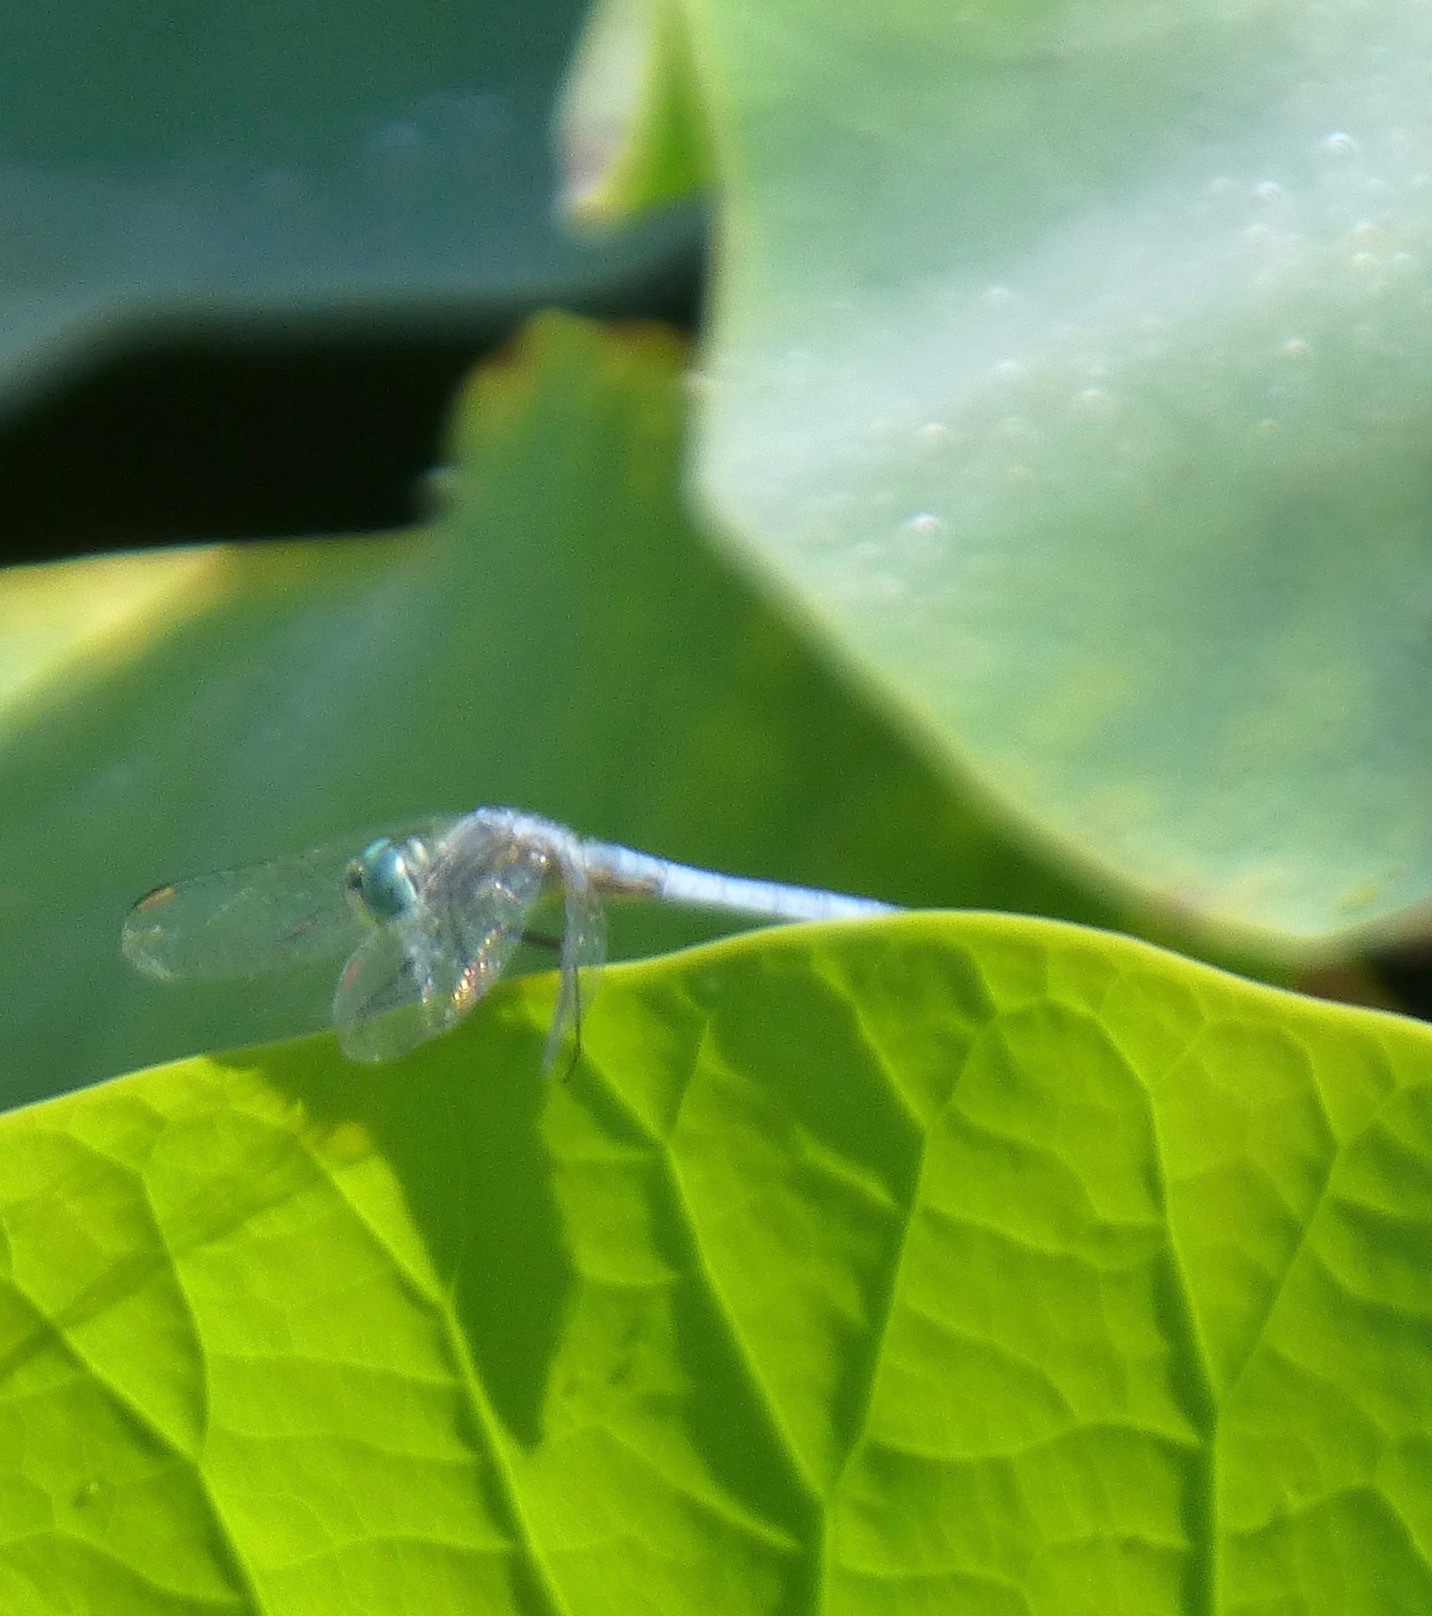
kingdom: Animalia
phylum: Arthropoda
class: Insecta
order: Odonata
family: Libellulidae
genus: Pachydiplax
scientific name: Pachydiplax longipennis
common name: Blue dasher
